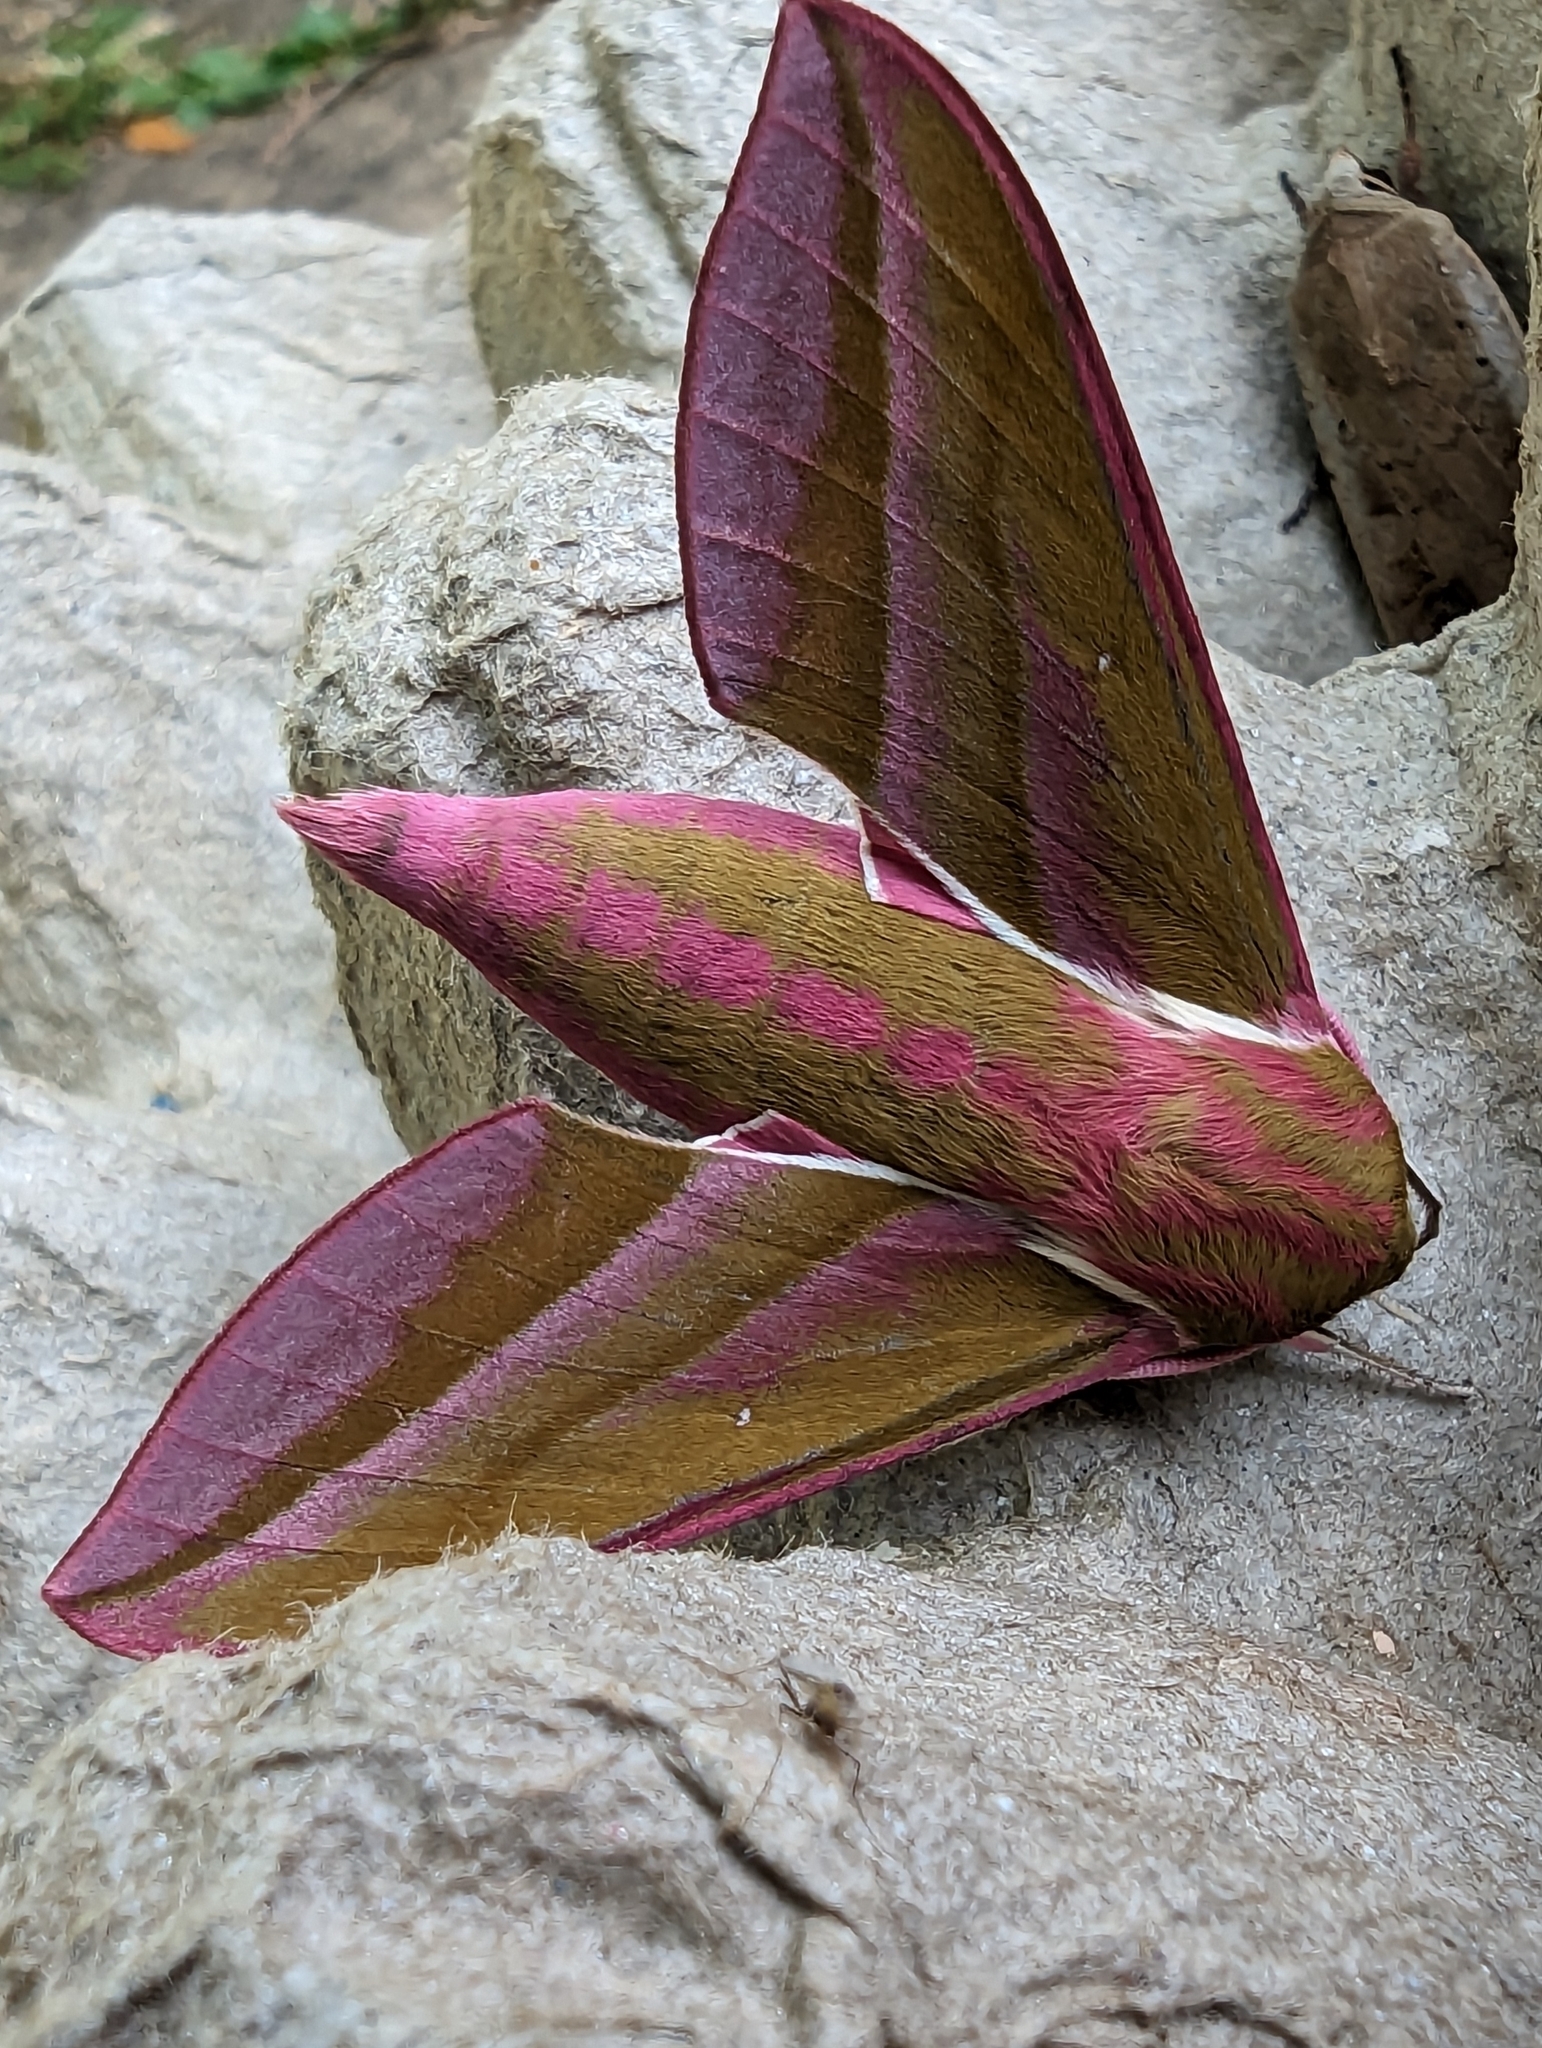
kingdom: Animalia
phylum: Arthropoda
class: Insecta
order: Lepidoptera
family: Sphingidae
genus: Deilephila
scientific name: Deilephila elpenor
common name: Elephant hawk-moth
